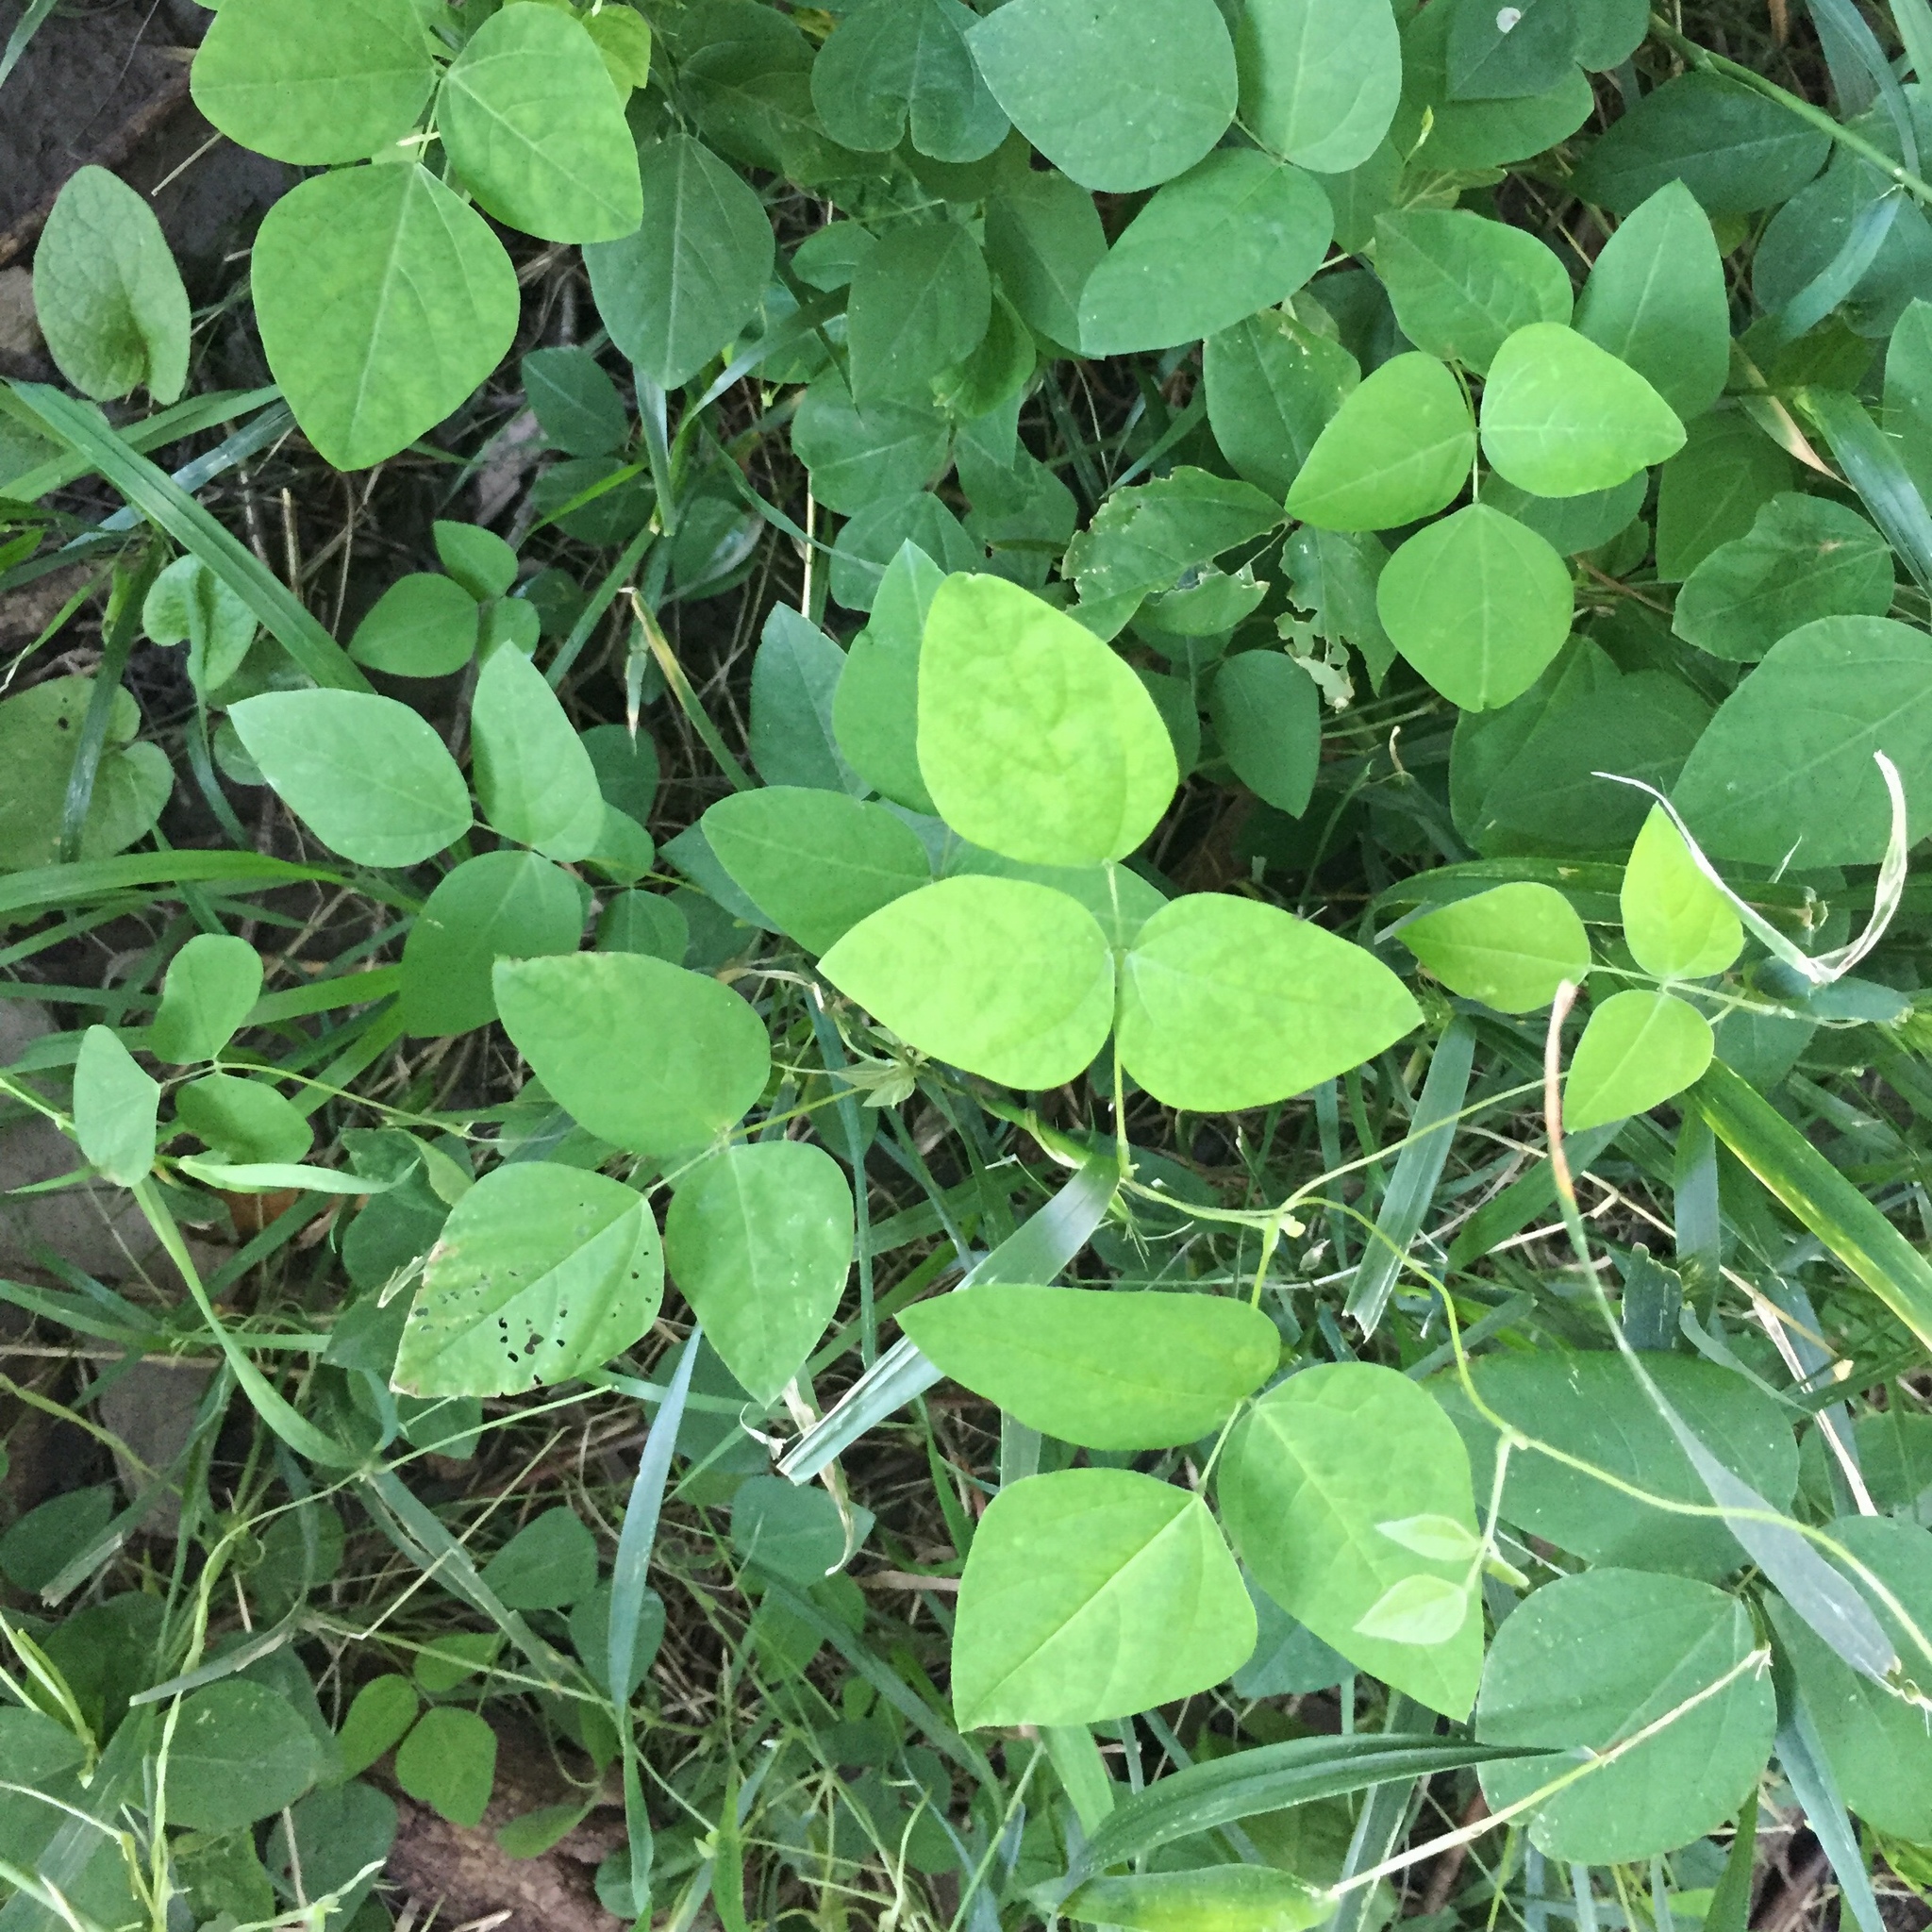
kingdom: Plantae
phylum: Tracheophyta
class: Magnoliopsida
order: Fabales
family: Fabaceae
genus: Amphicarpaea
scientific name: Amphicarpaea bracteata
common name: American hog peanut
